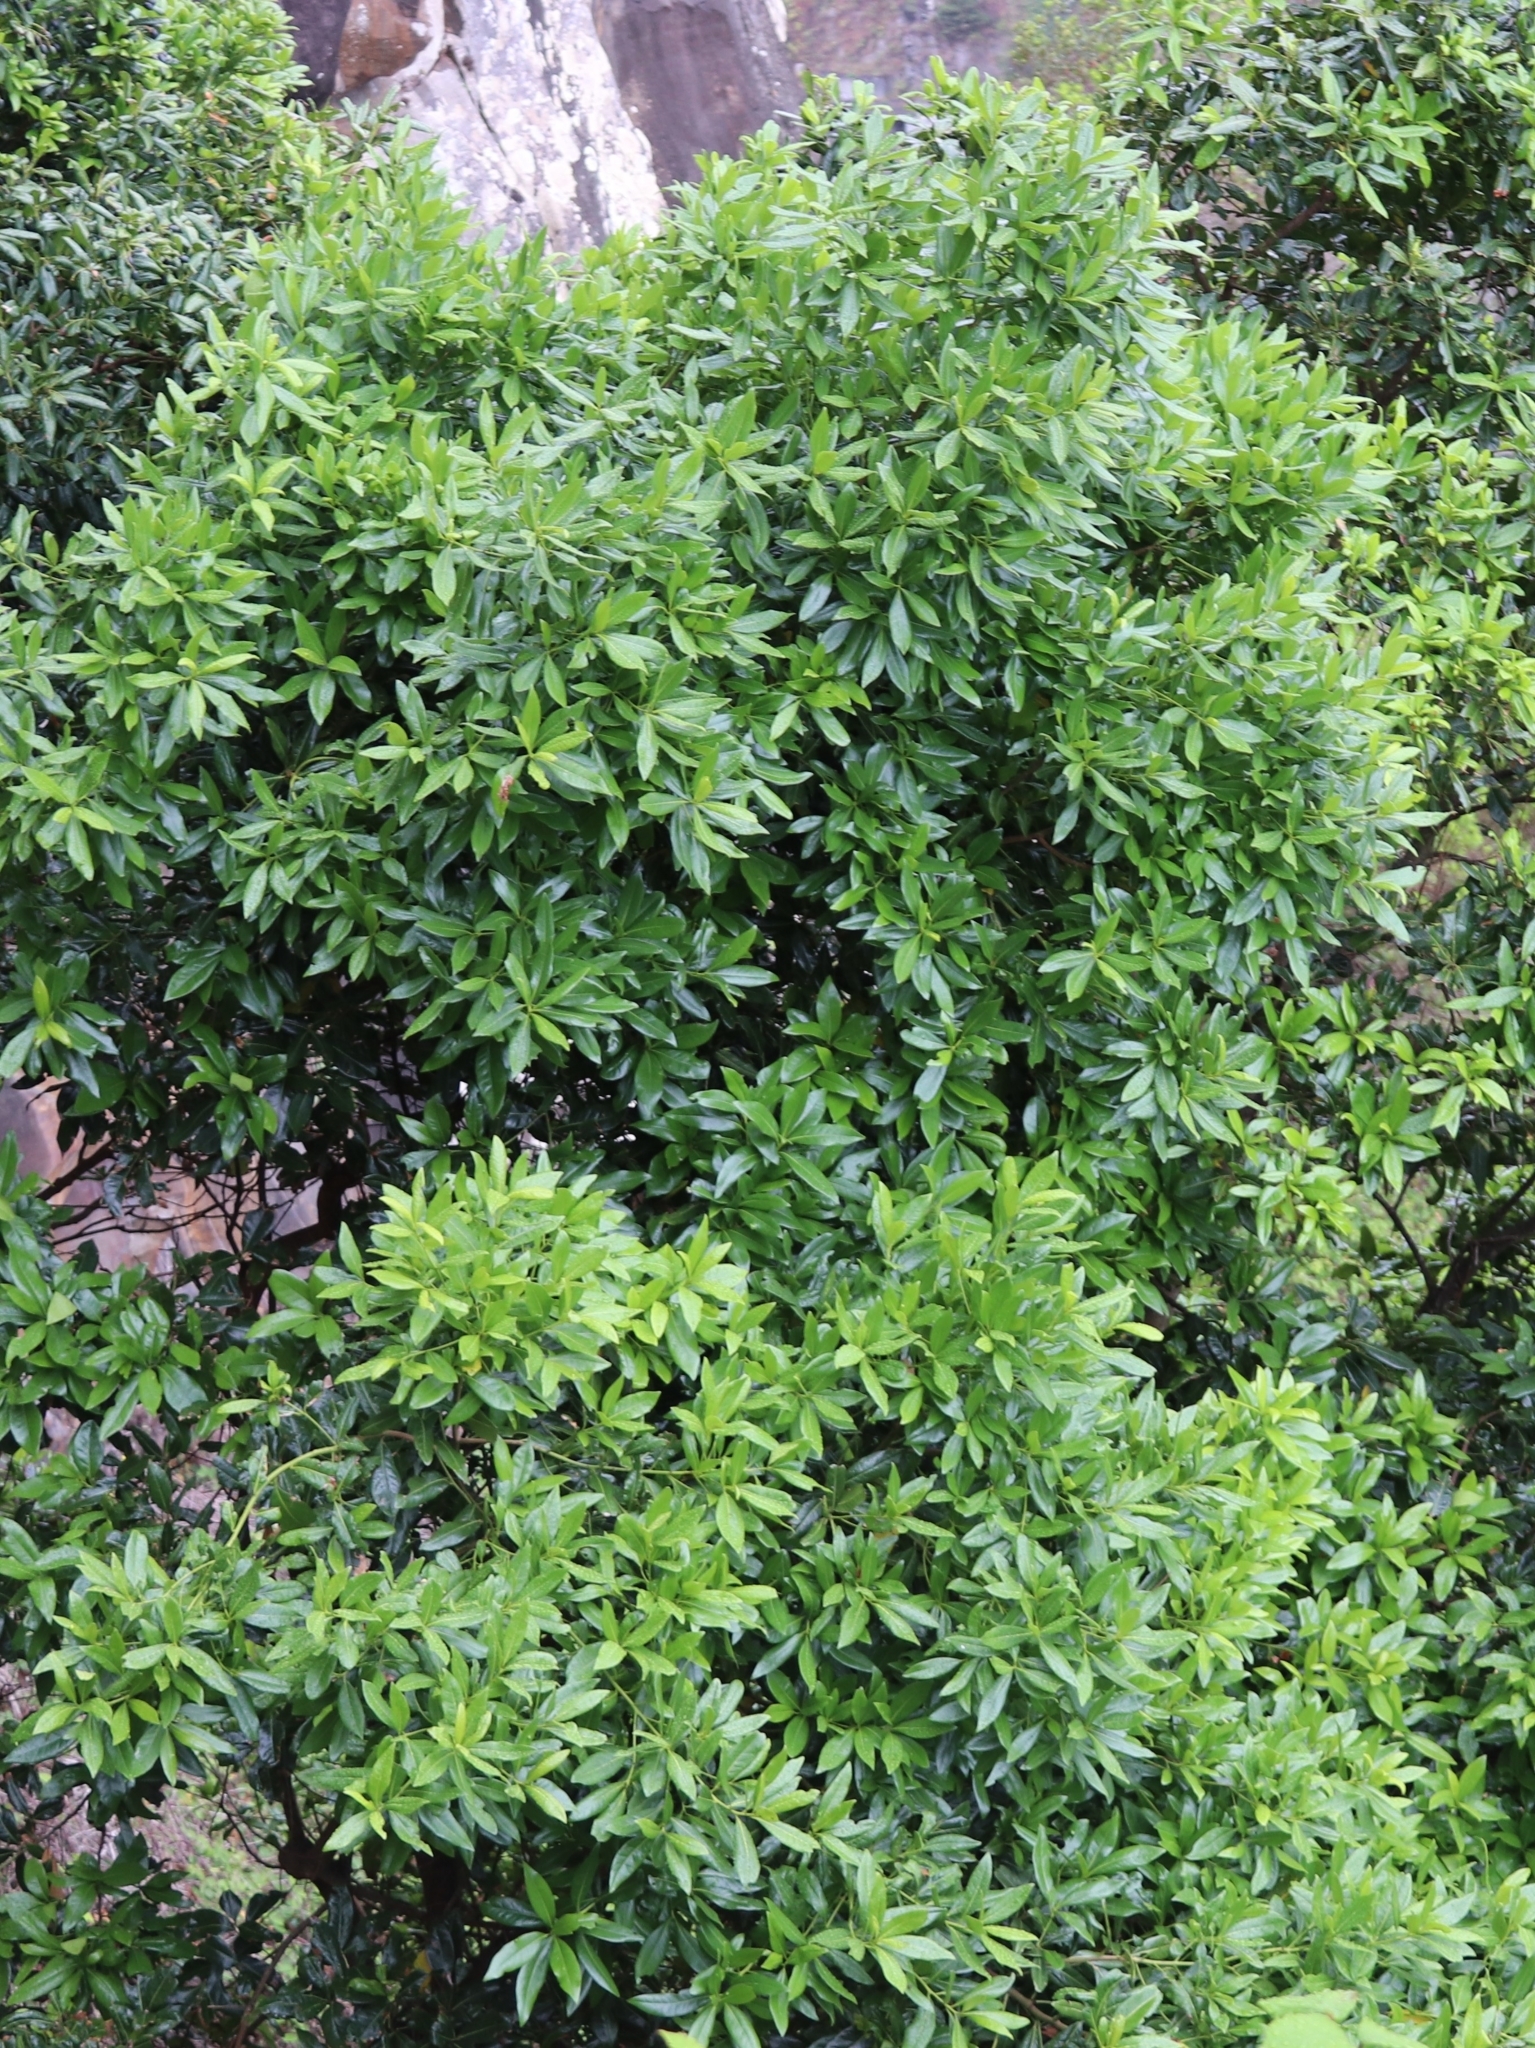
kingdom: Plantae
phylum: Tracheophyta
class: Magnoliopsida
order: Laurales
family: Lauraceae
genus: Apollonias
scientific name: Apollonias barbujana
